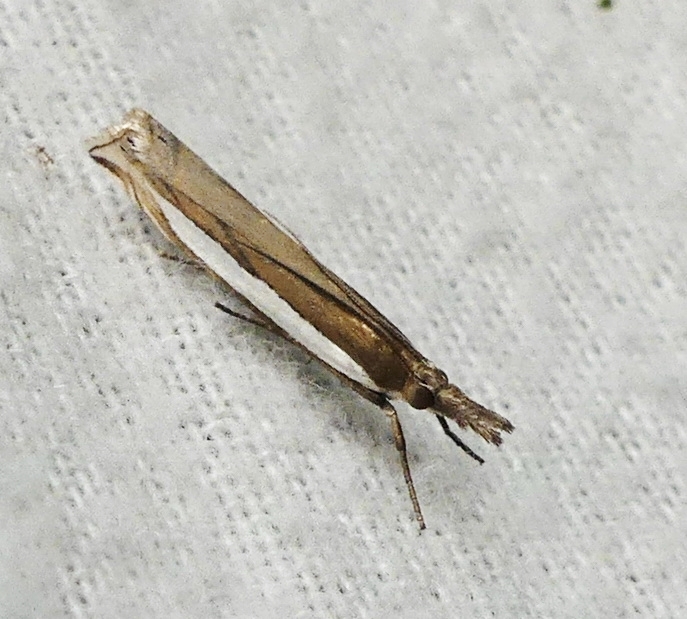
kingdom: Animalia
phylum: Arthropoda
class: Insecta
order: Lepidoptera
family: Crambidae
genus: Crambus
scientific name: Crambus leachellus
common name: Leach's grass-veneer
